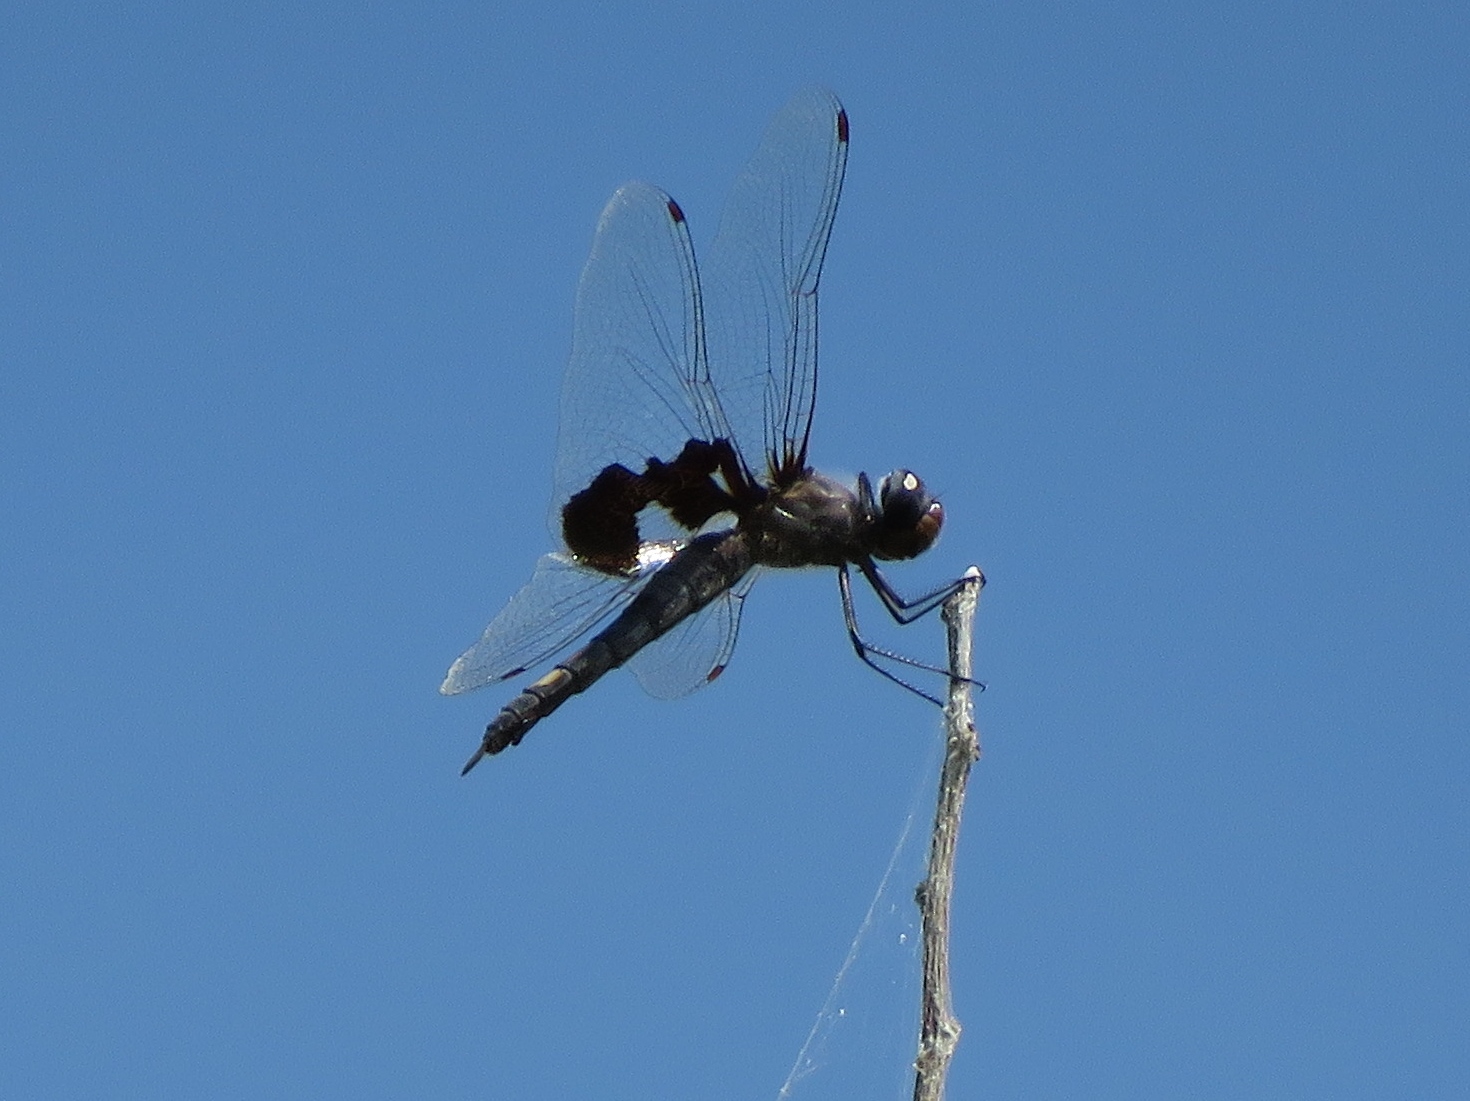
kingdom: Animalia
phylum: Arthropoda
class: Insecta
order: Odonata
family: Libellulidae
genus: Tramea
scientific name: Tramea lacerata
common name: Black saddlebags
